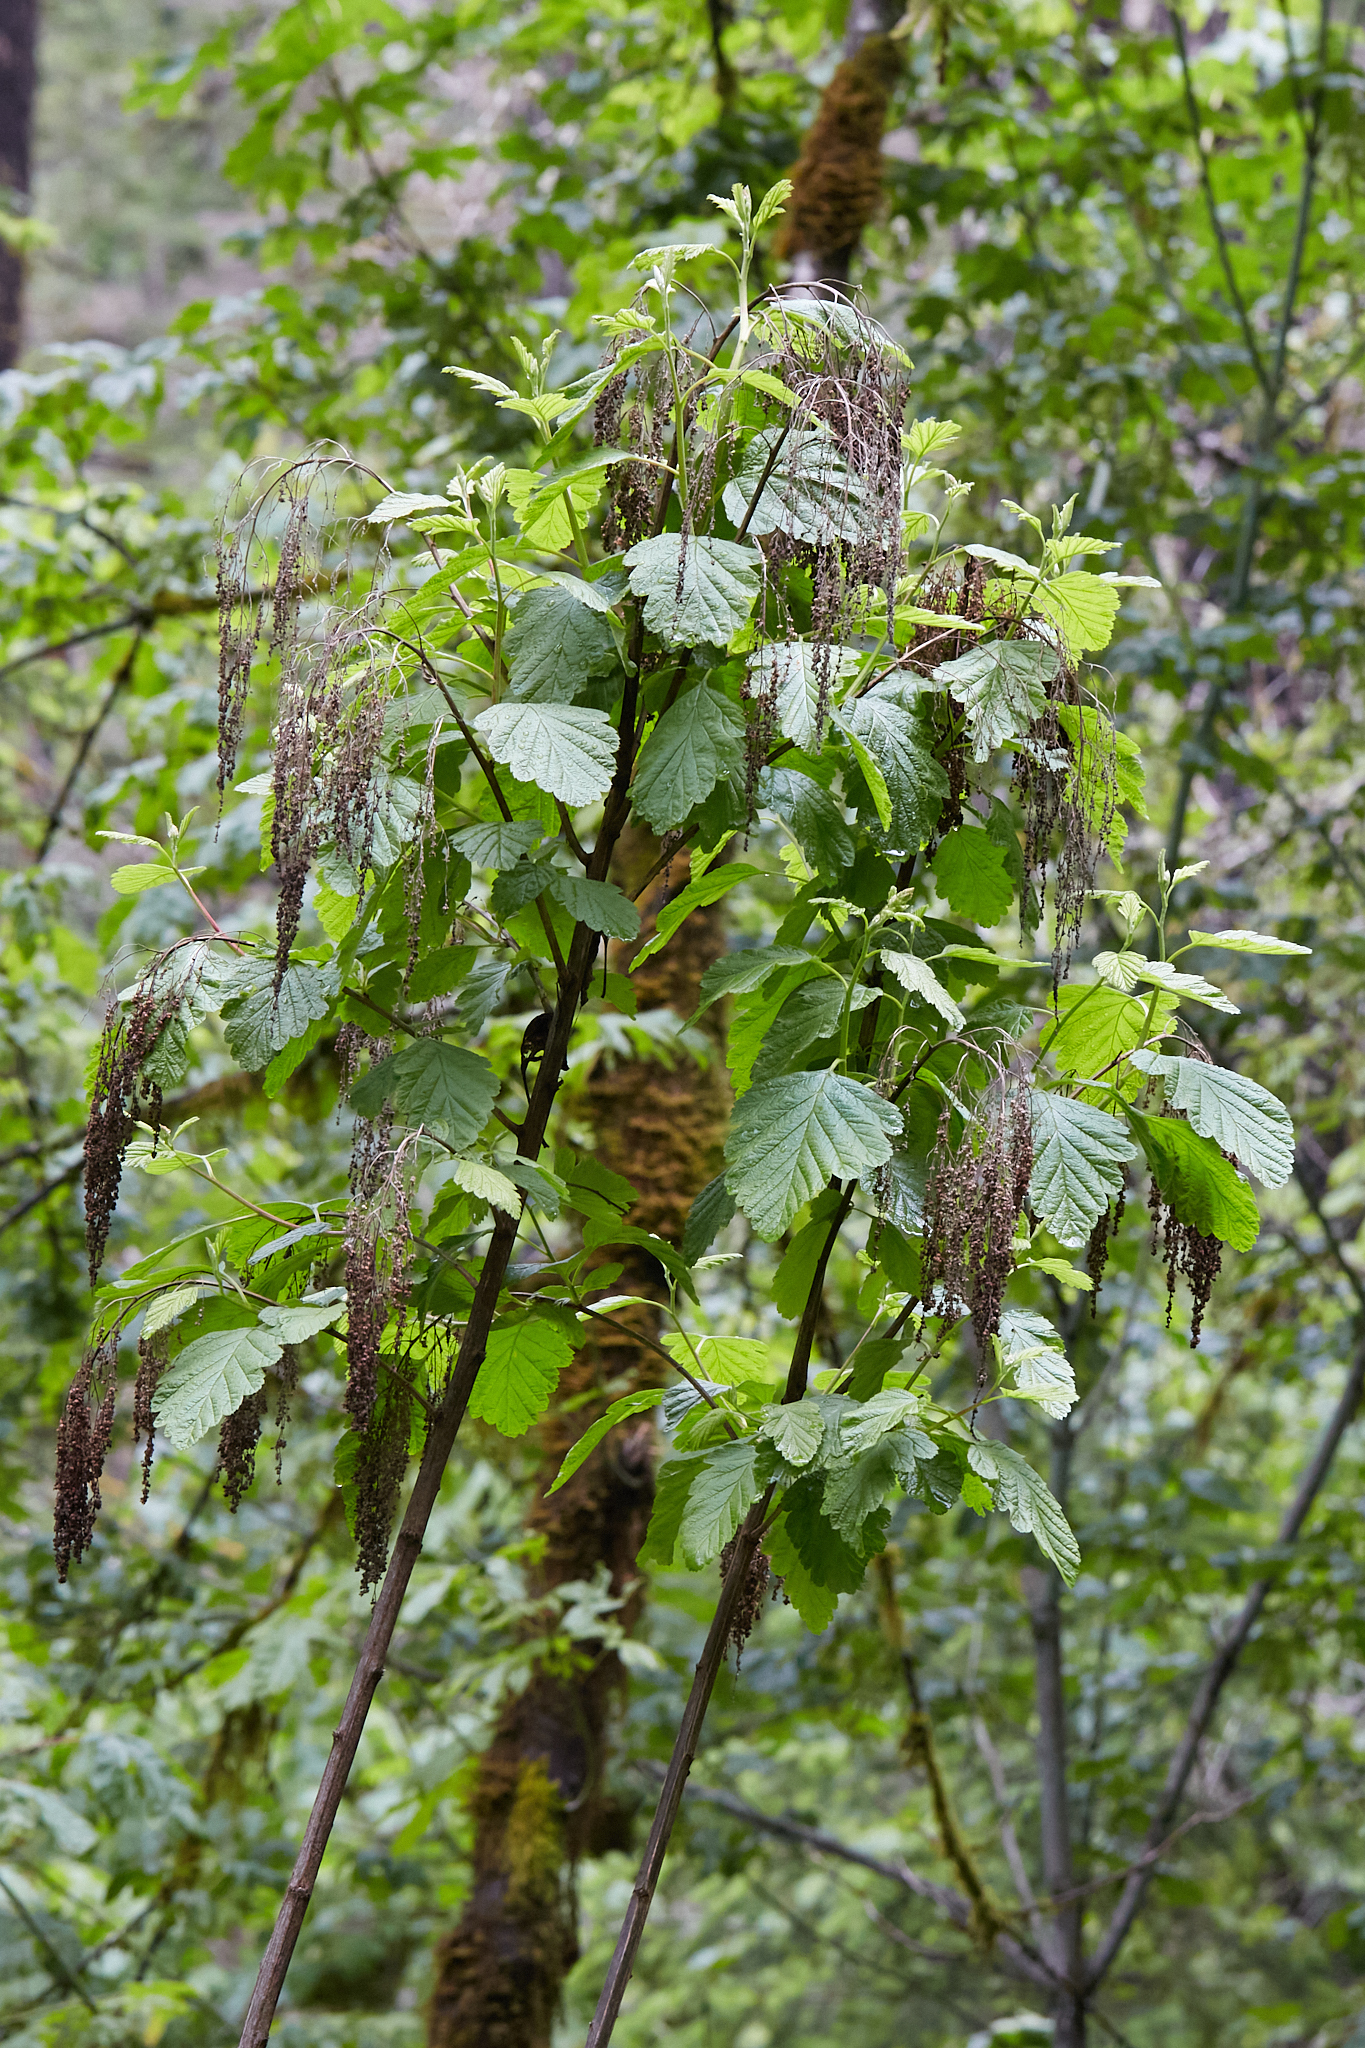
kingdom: Plantae
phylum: Tracheophyta
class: Magnoliopsida
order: Rosales
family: Rosaceae
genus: Holodiscus
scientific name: Holodiscus discolor
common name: Oceanspray
